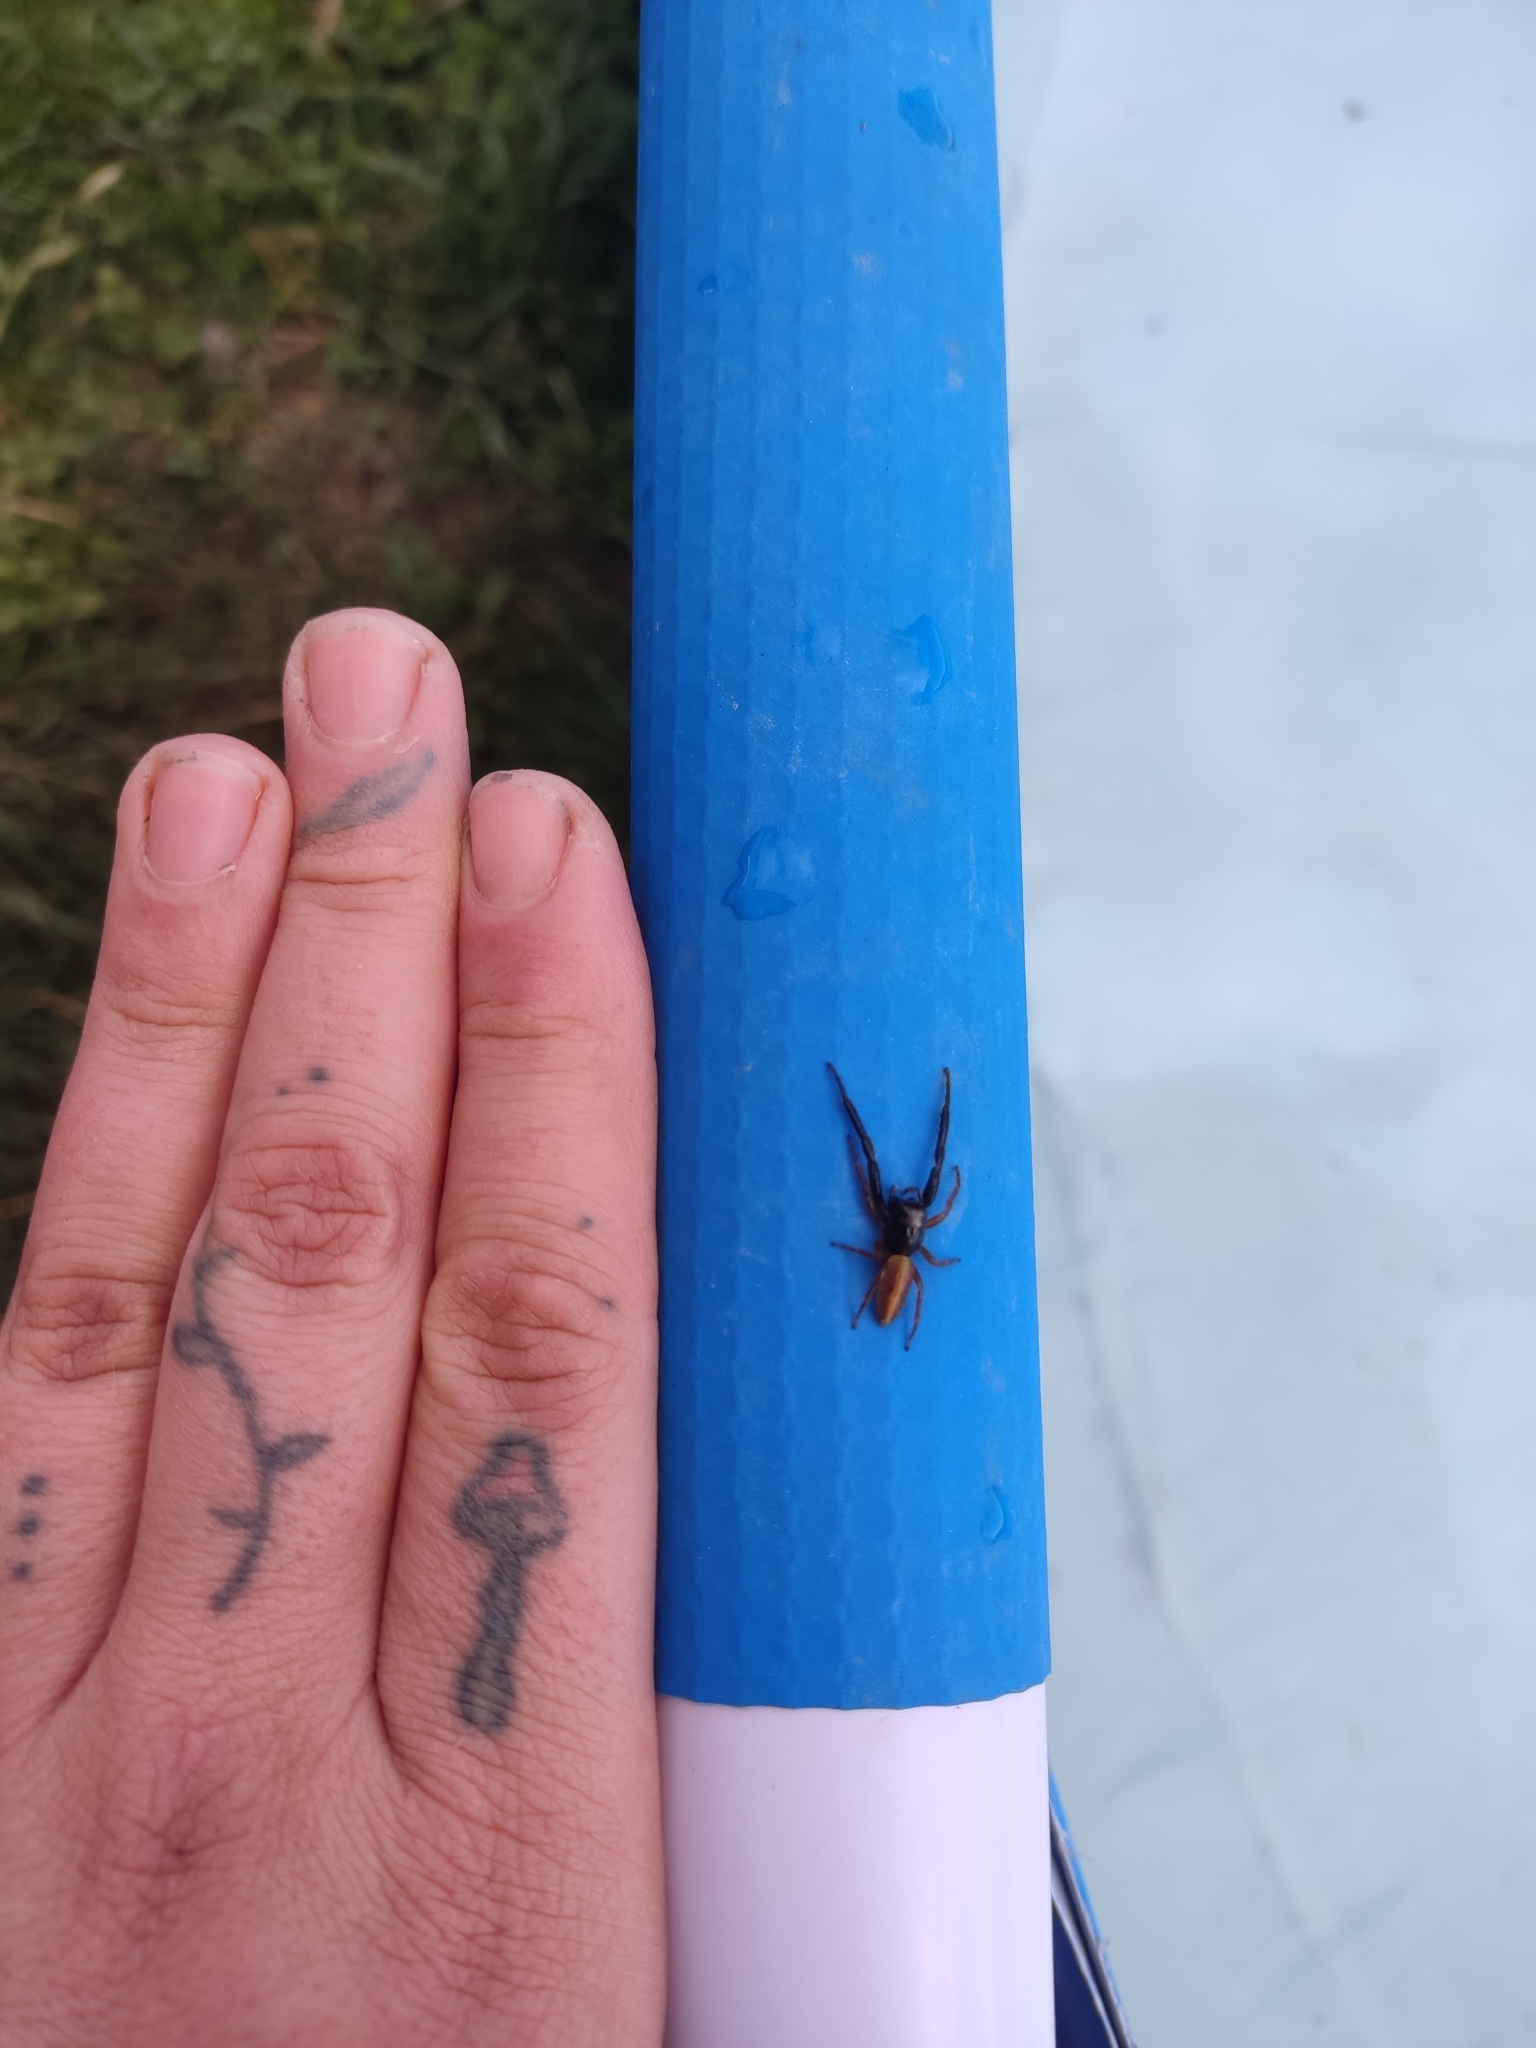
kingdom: Animalia
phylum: Arthropoda
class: Arachnida
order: Araneae
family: Salticidae
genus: Trite
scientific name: Trite planiceps
